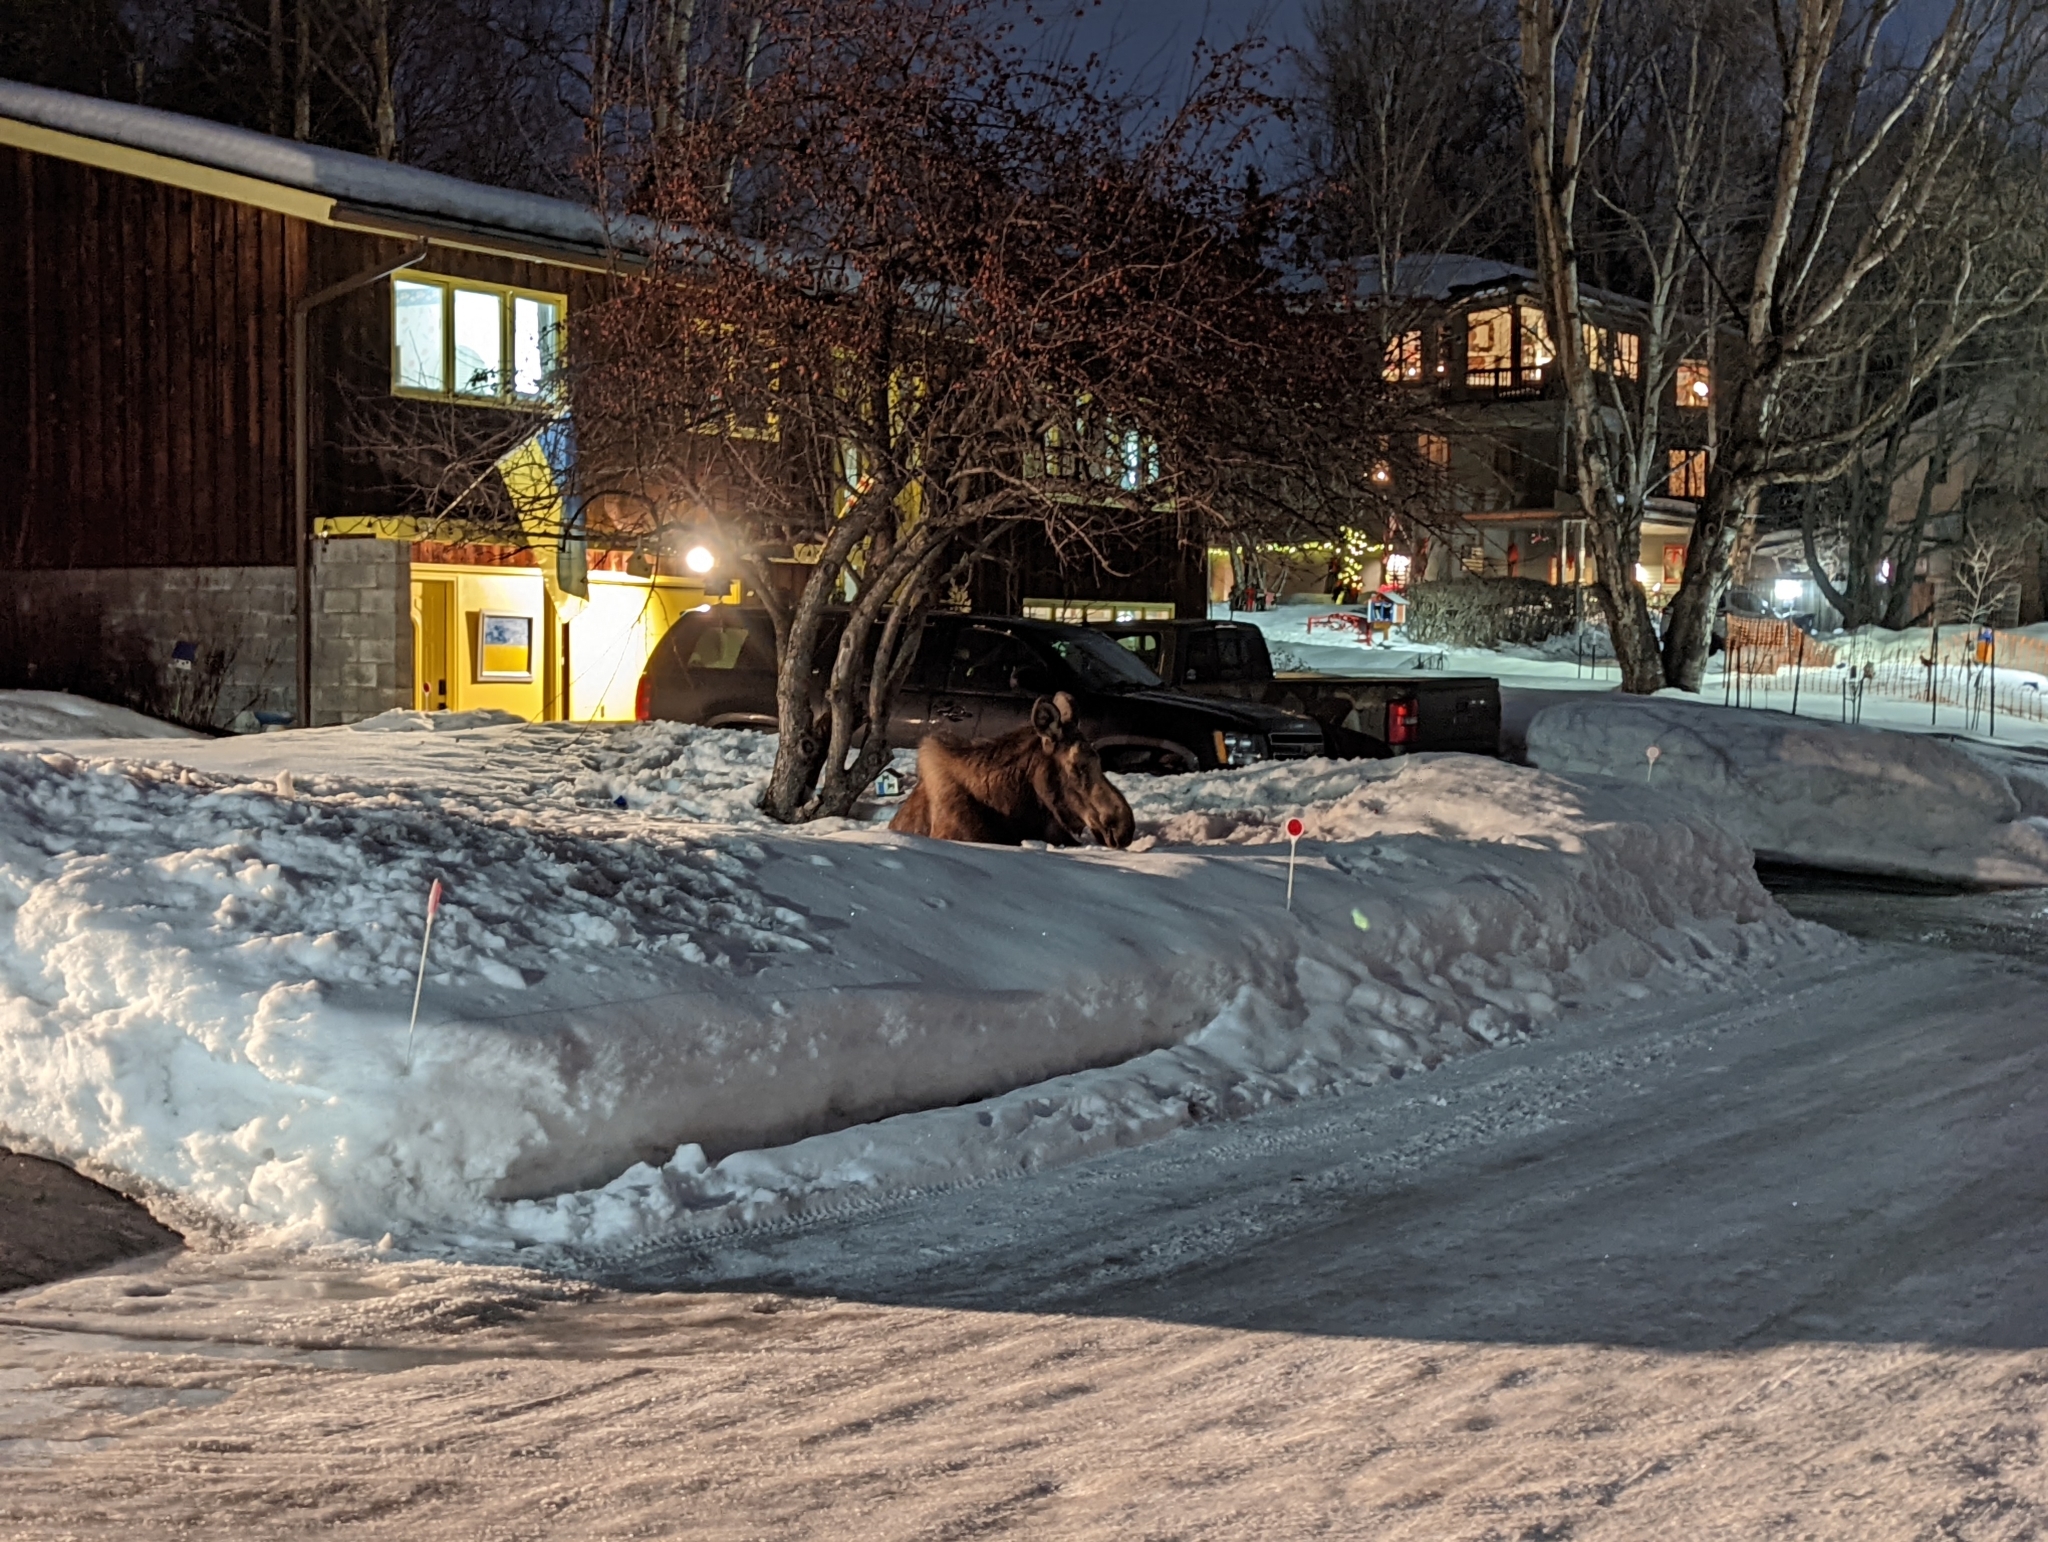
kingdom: Animalia
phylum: Chordata
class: Mammalia
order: Artiodactyla
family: Cervidae
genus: Alces
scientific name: Alces americanus
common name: Moose
